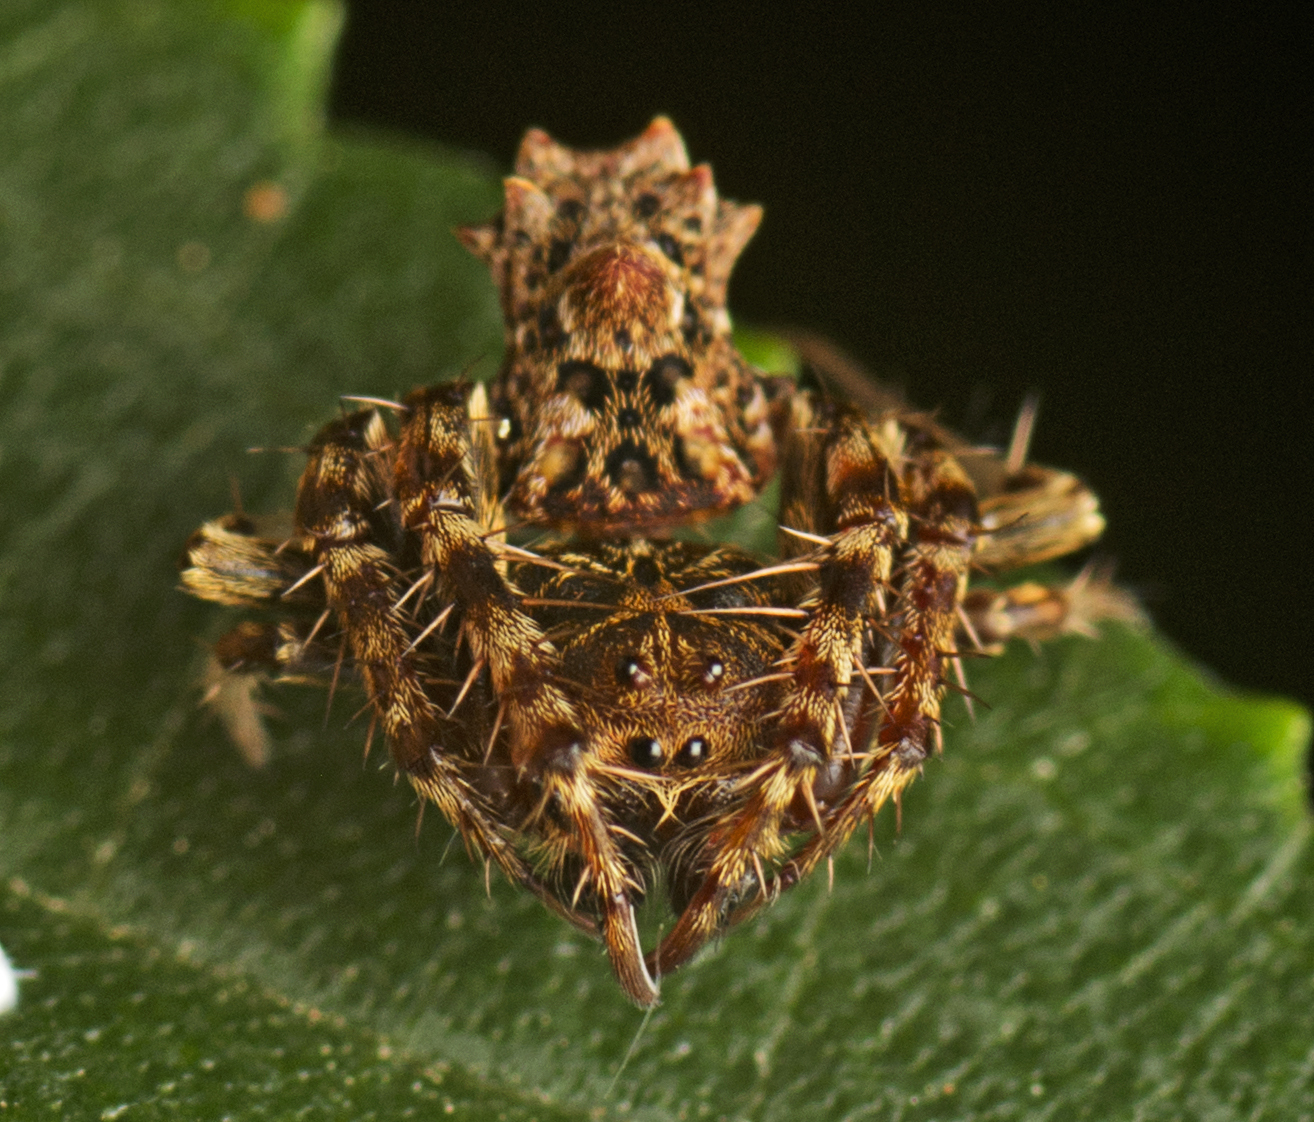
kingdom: Animalia
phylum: Arthropoda
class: Arachnida
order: Araneae
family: Arkyidae
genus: Arkys
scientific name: Arkys dilatatus
